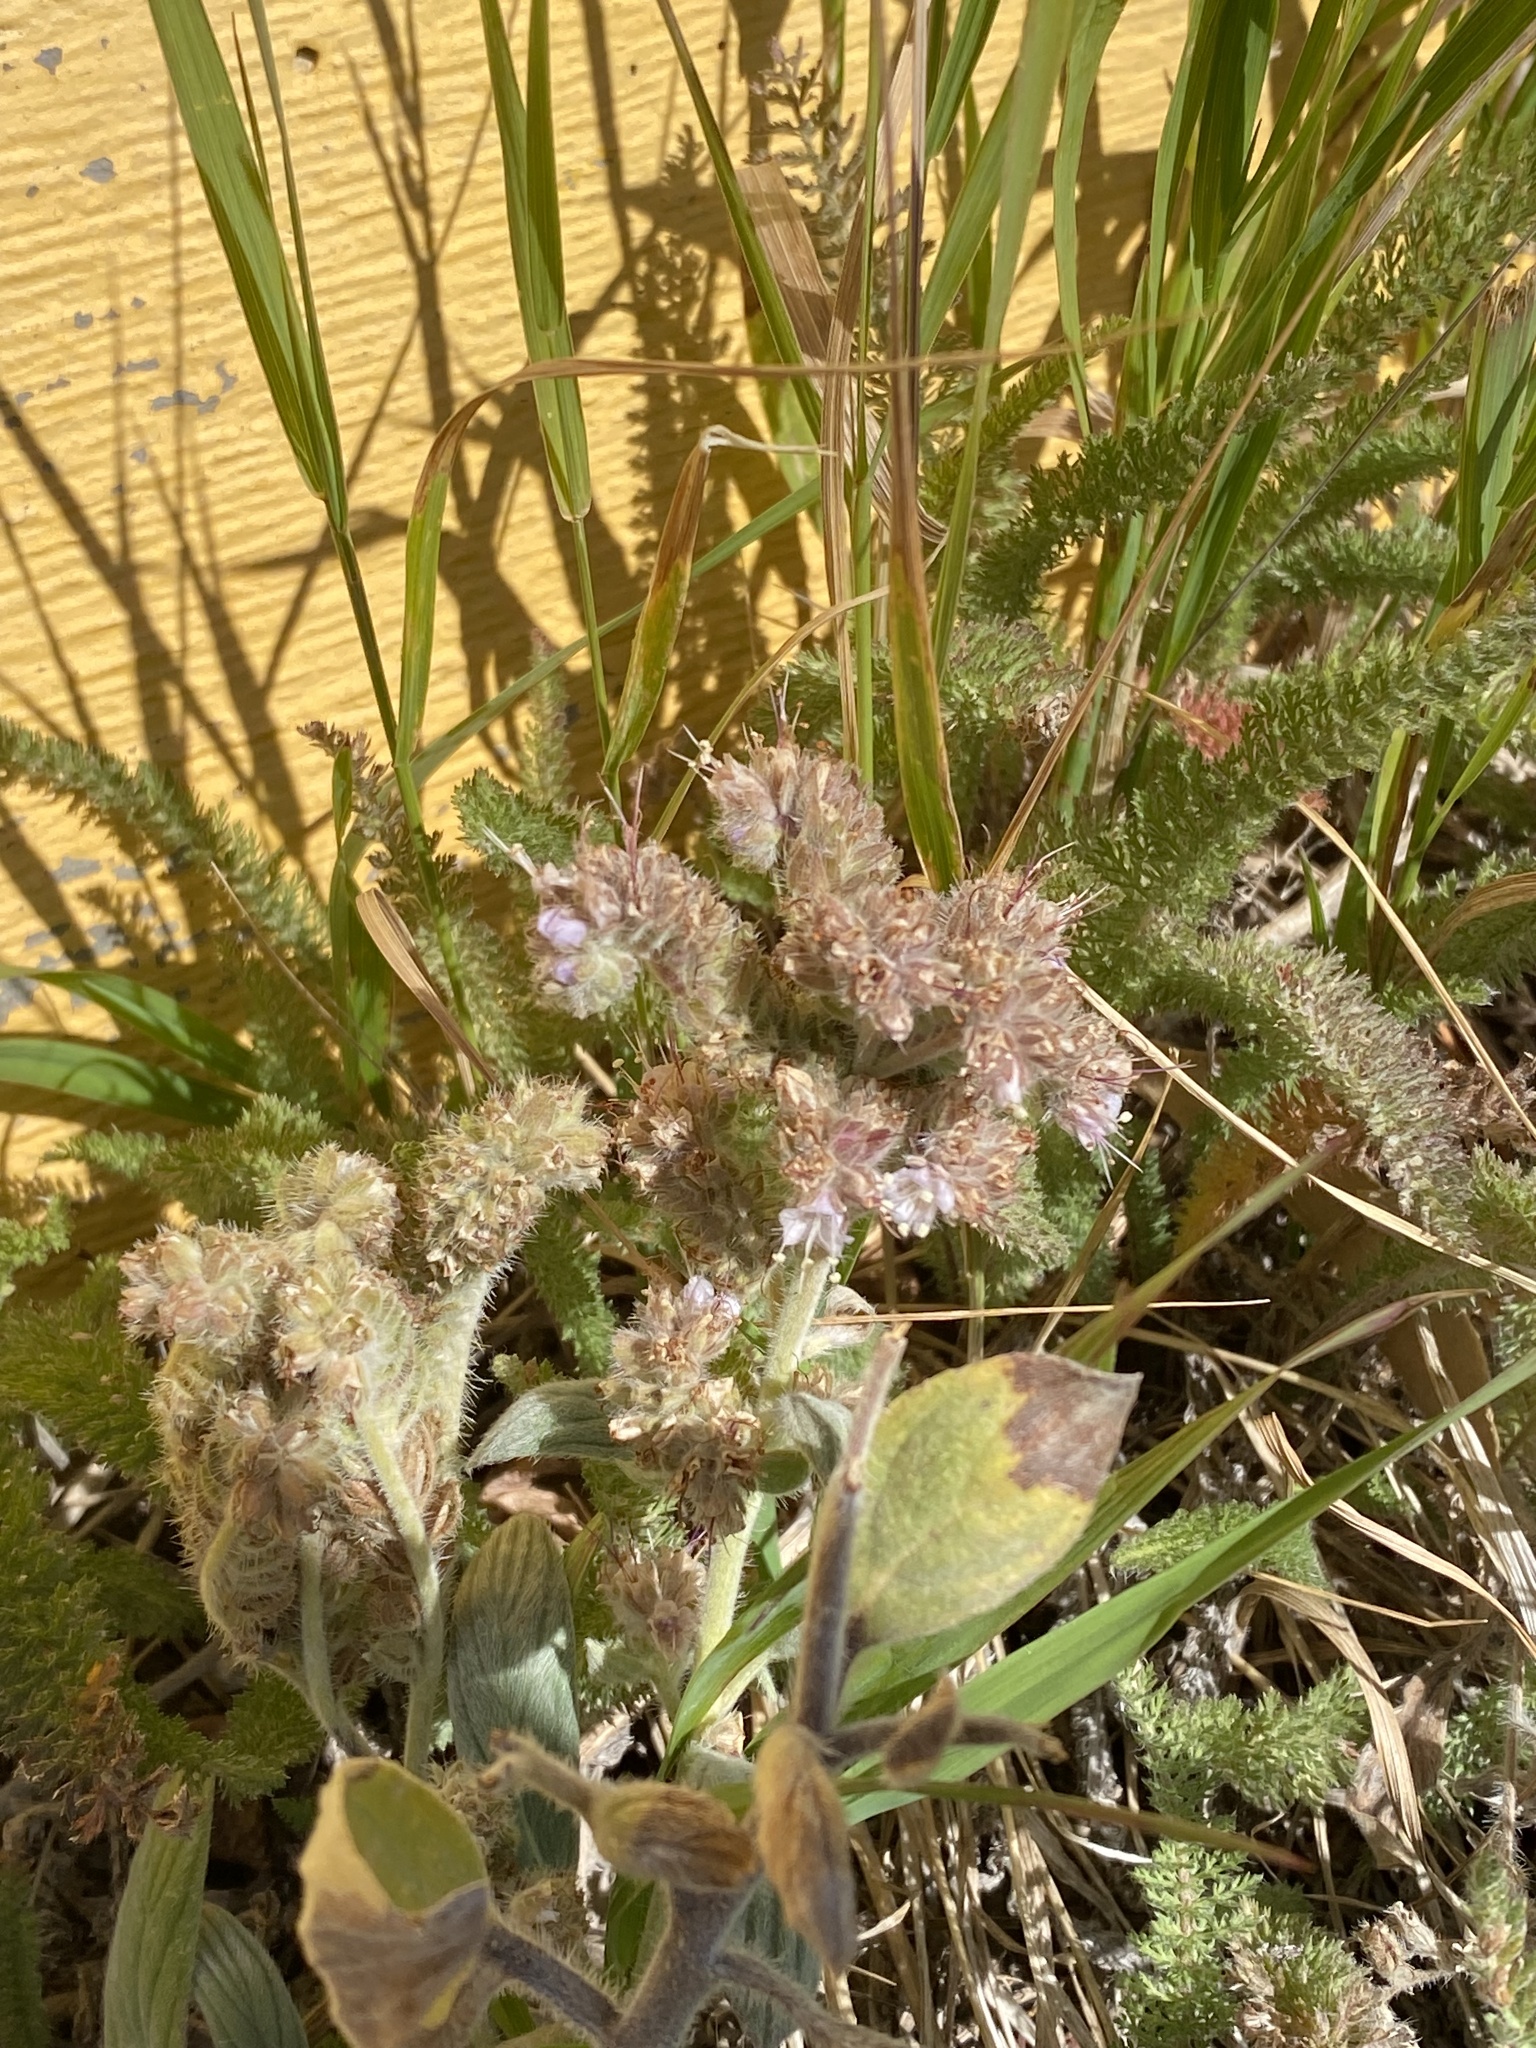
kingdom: Plantae
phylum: Tracheophyta
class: Magnoliopsida
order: Boraginales
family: Hydrophyllaceae
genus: Phacelia
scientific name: Phacelia hastata
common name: Silver-leaved phacelia
